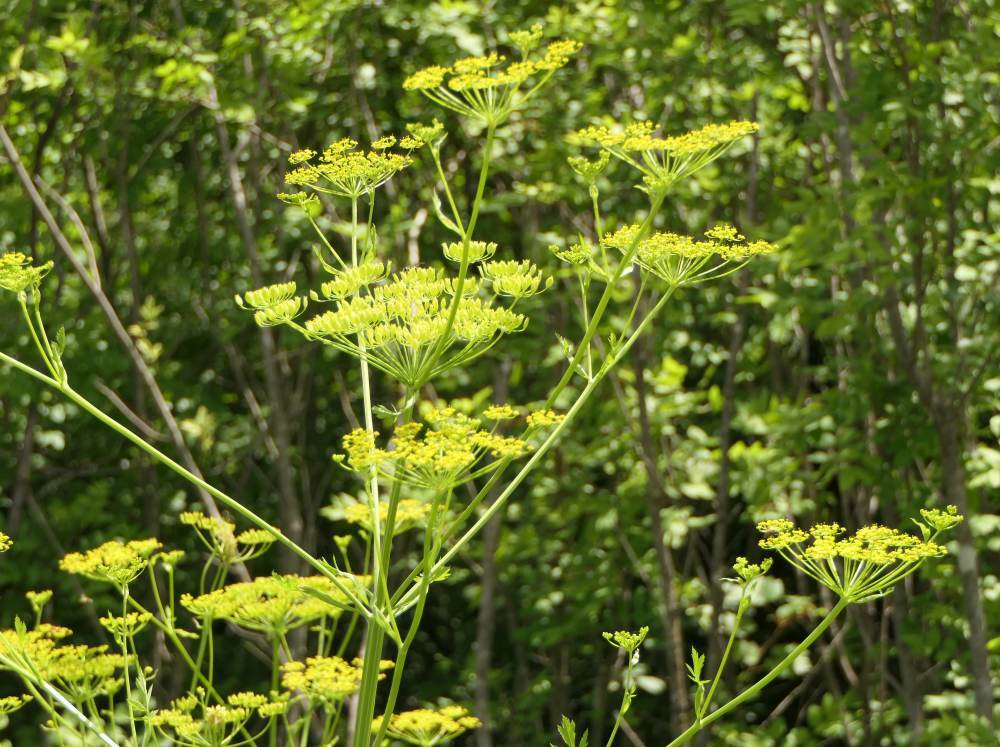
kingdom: Plantae
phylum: Tracheophyta
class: Magnoliopsida
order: Apiales
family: Apiaceae
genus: Pastinaca
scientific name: Pastinaca sativa
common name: Wild parsnip
